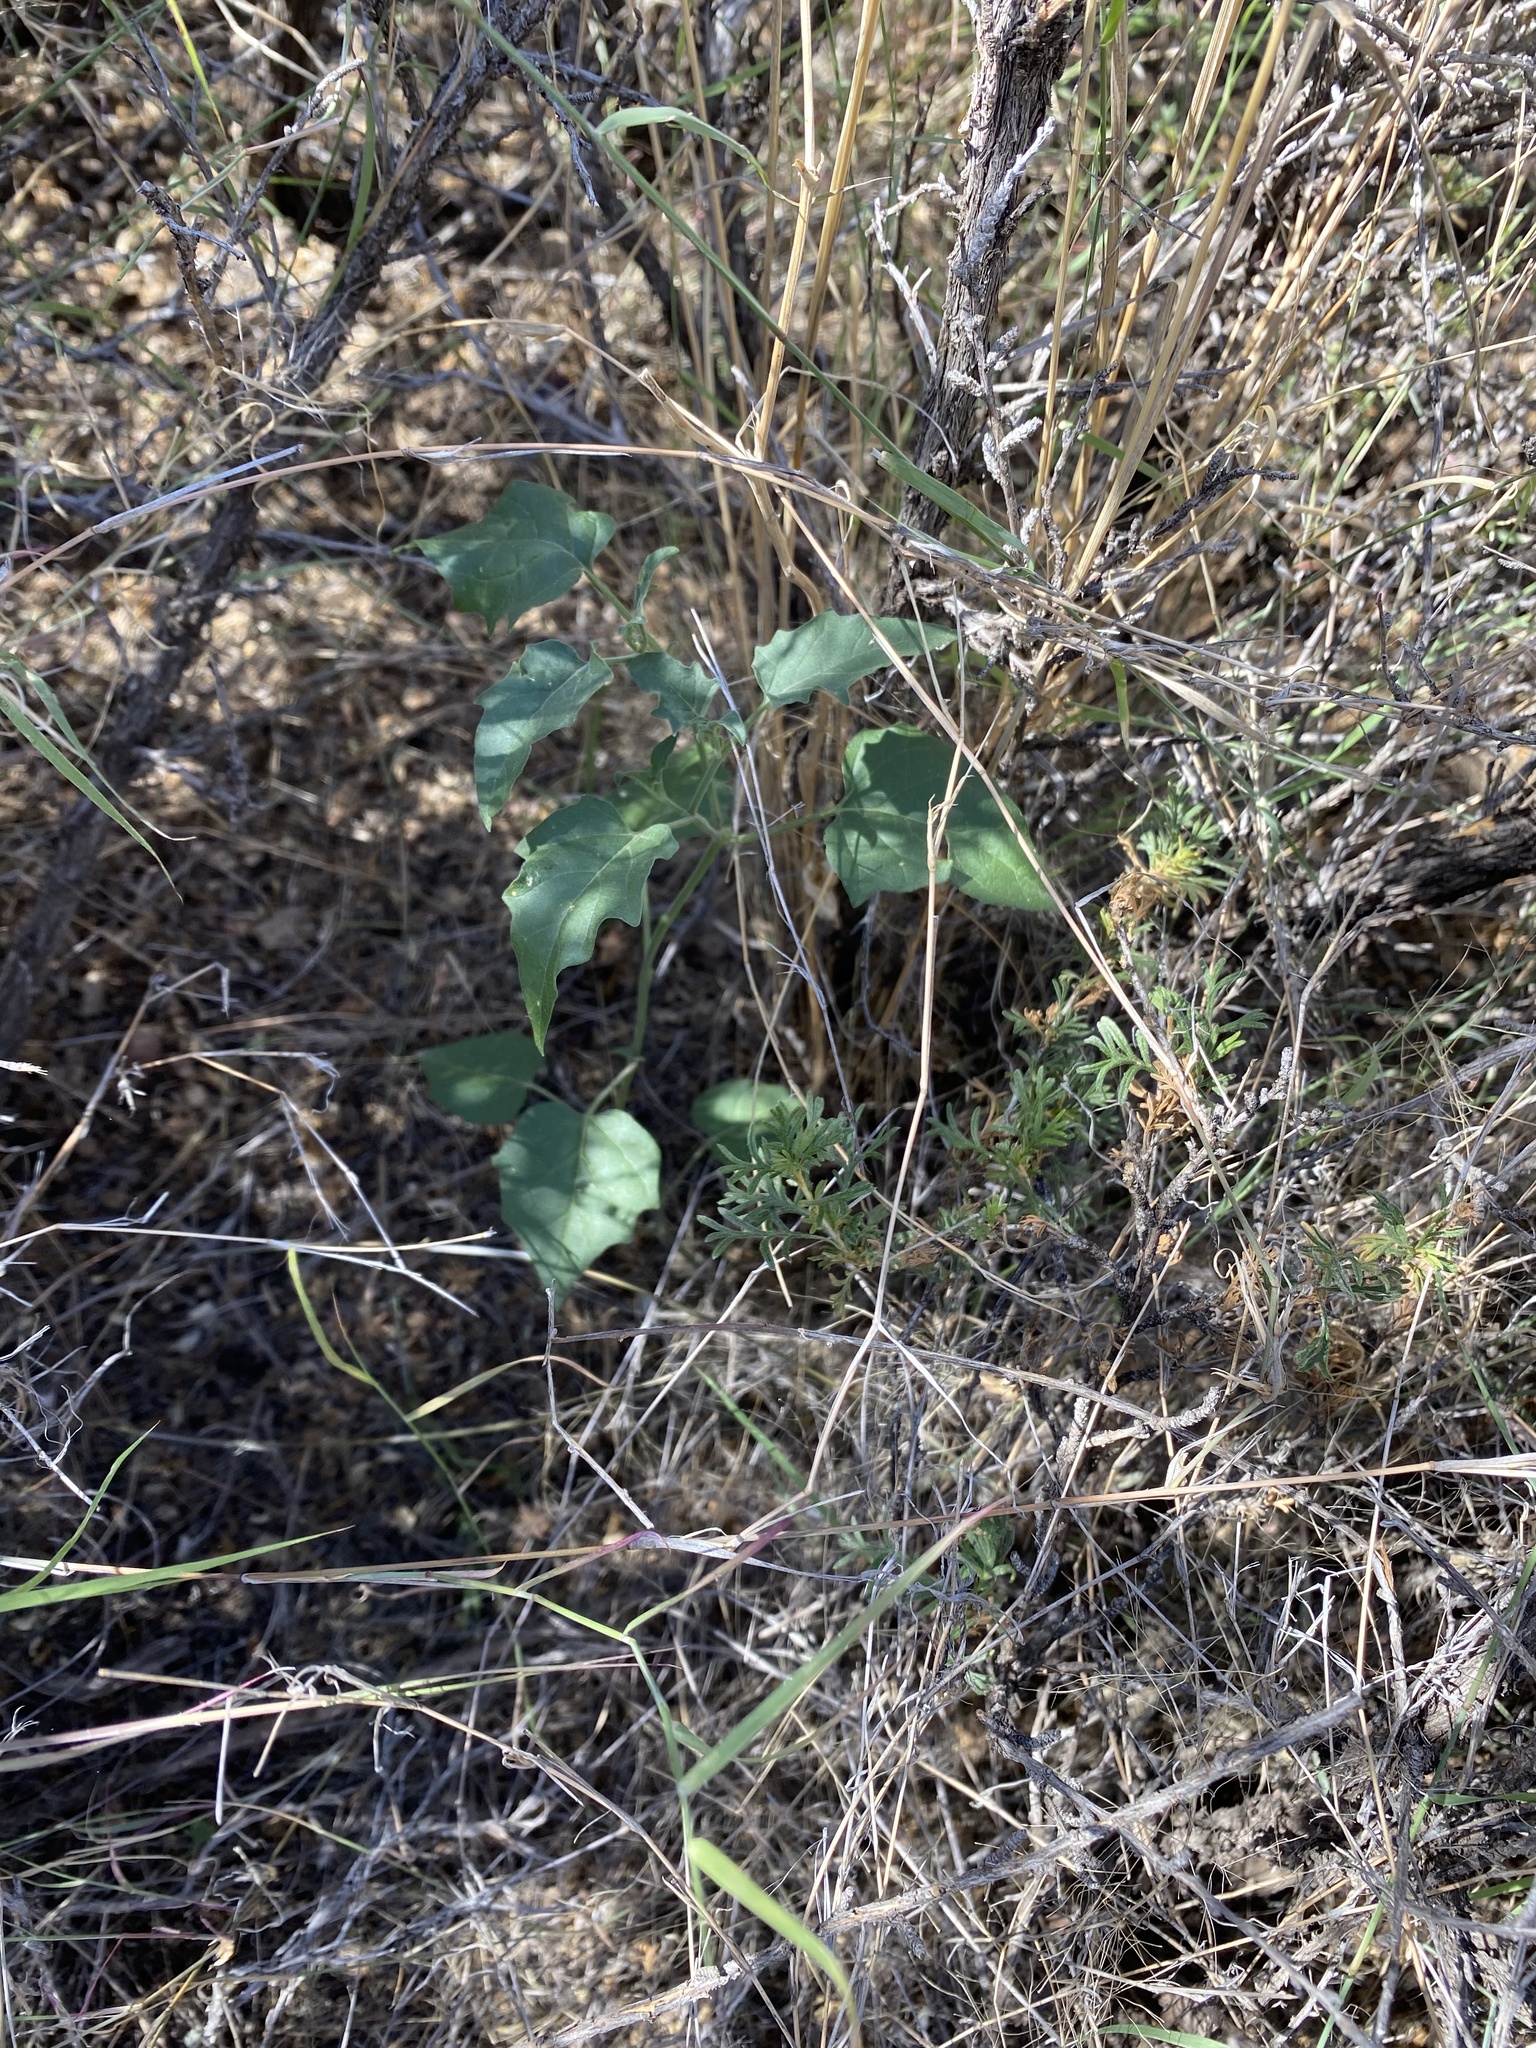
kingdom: Plantae
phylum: Tracheophyta
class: Magnoliopsida
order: Solanales
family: Solanaceae
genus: Datura
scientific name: Datura wrightii
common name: Sacred thorn-apple
